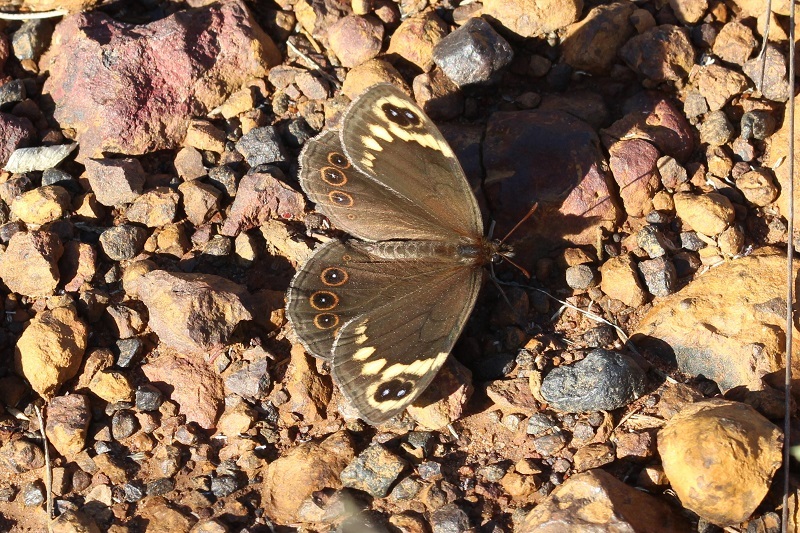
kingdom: Animalia
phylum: Arthropoda
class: Insecta
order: Lepidoptera
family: Nymphalidae
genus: Dira
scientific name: Dira clytus
